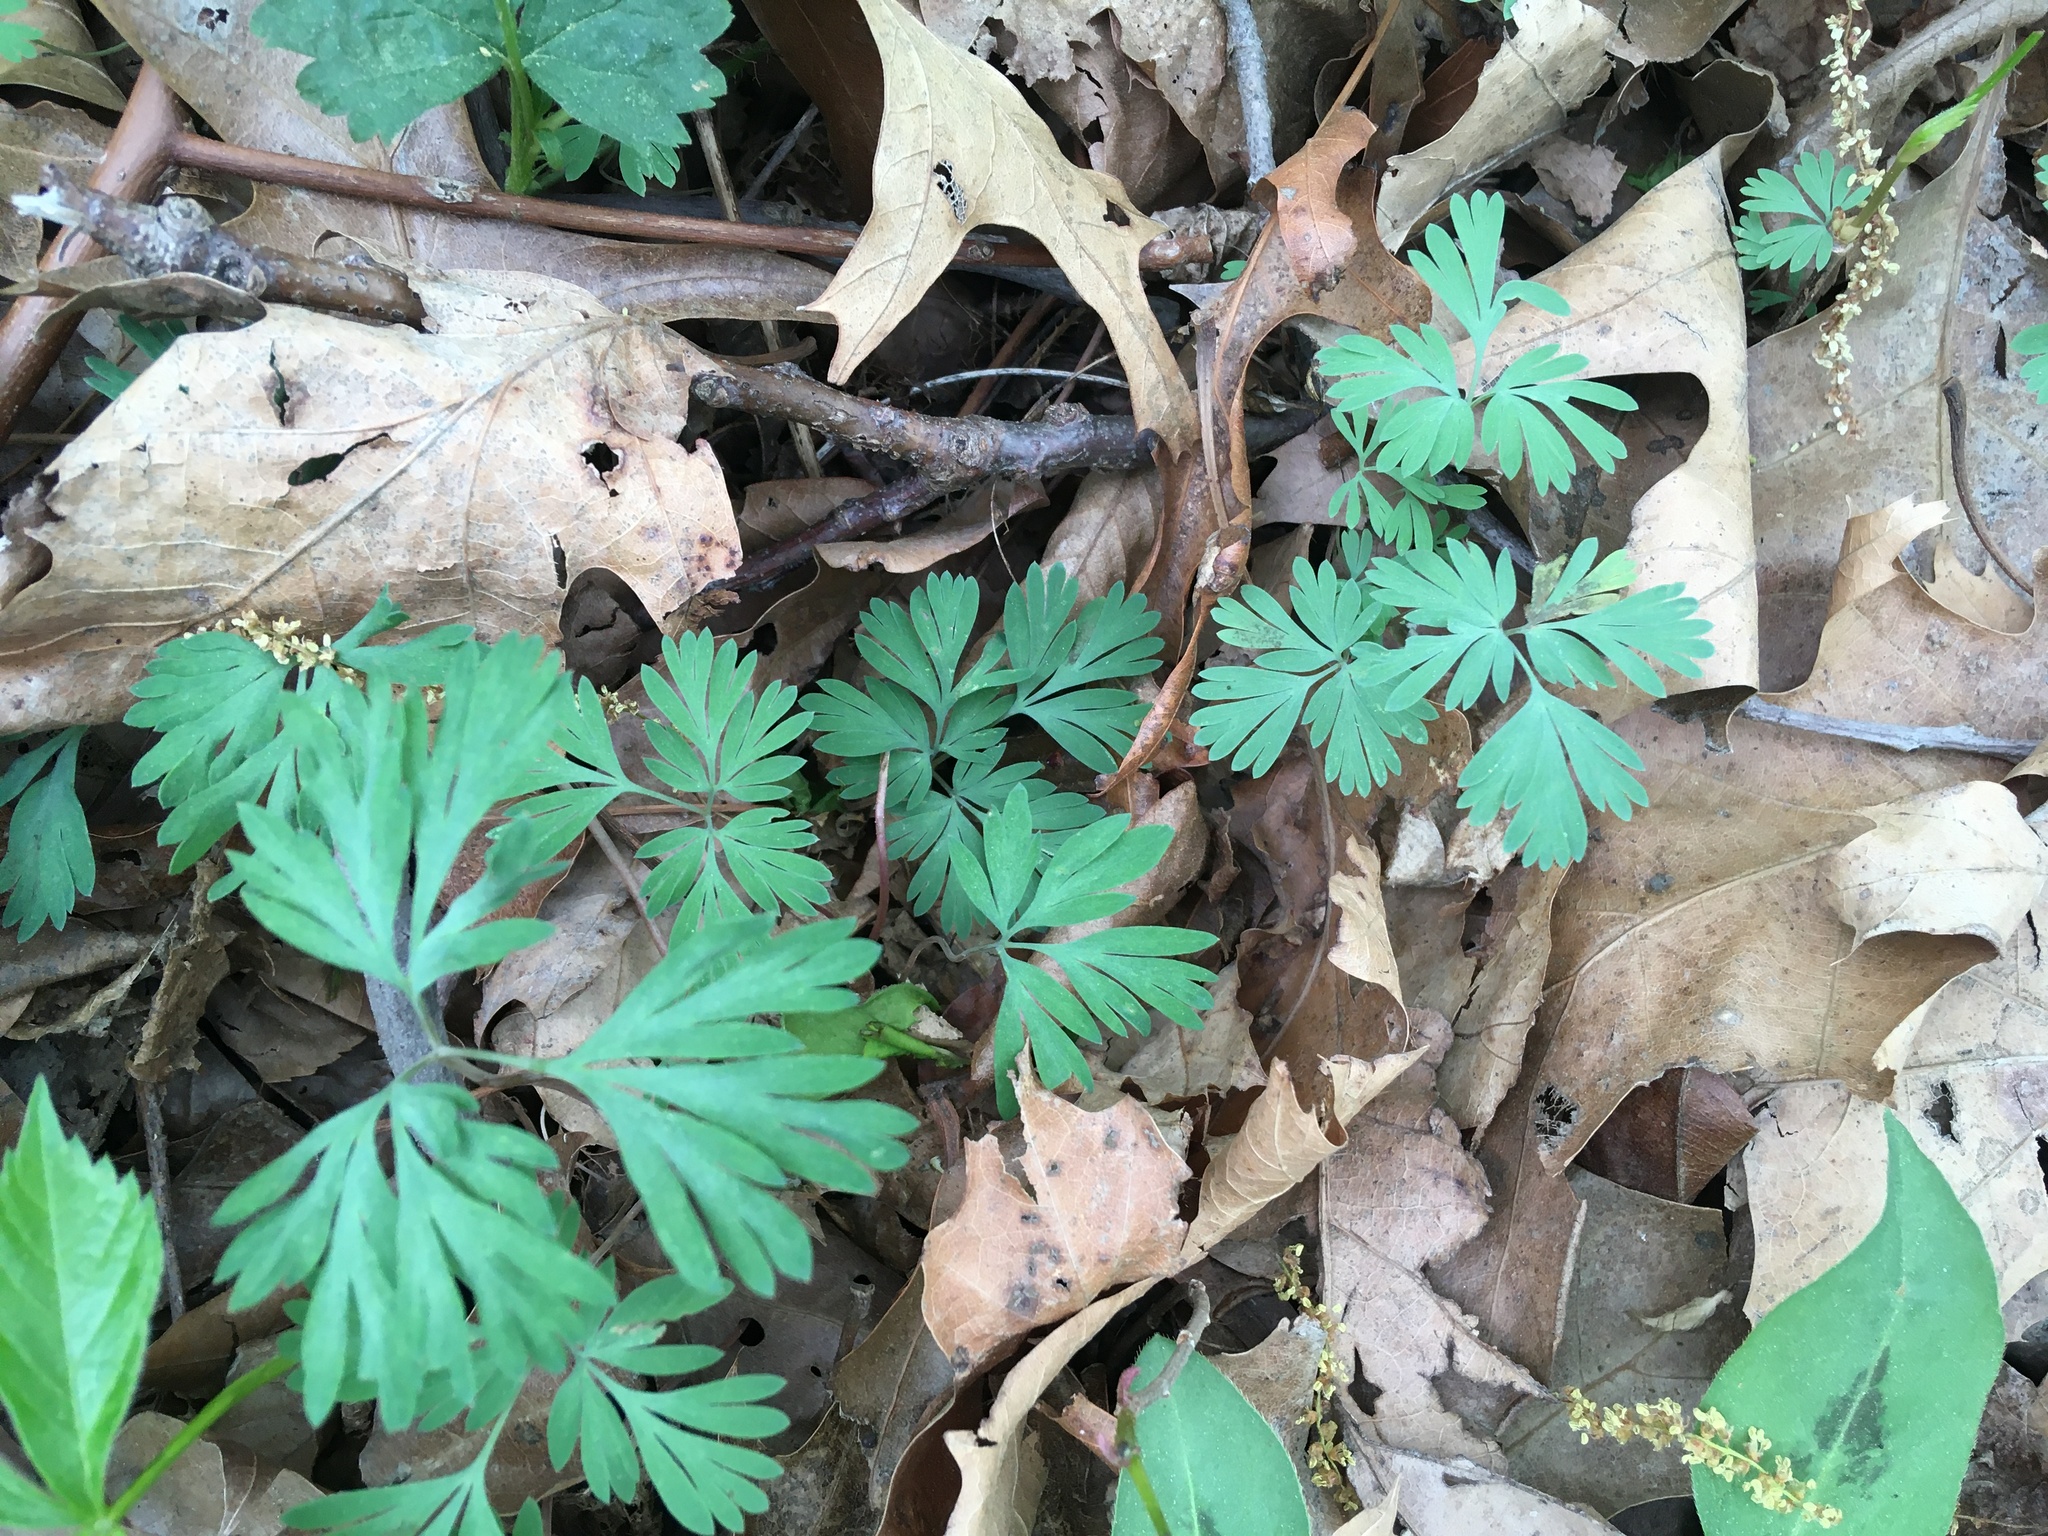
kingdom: Plantae
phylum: Tracheophyta
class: Magnoliopsida
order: Ranunculales
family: Papaveraceae
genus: Dicentra
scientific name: Dicentra cucullaria
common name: Dutchman's breeches
